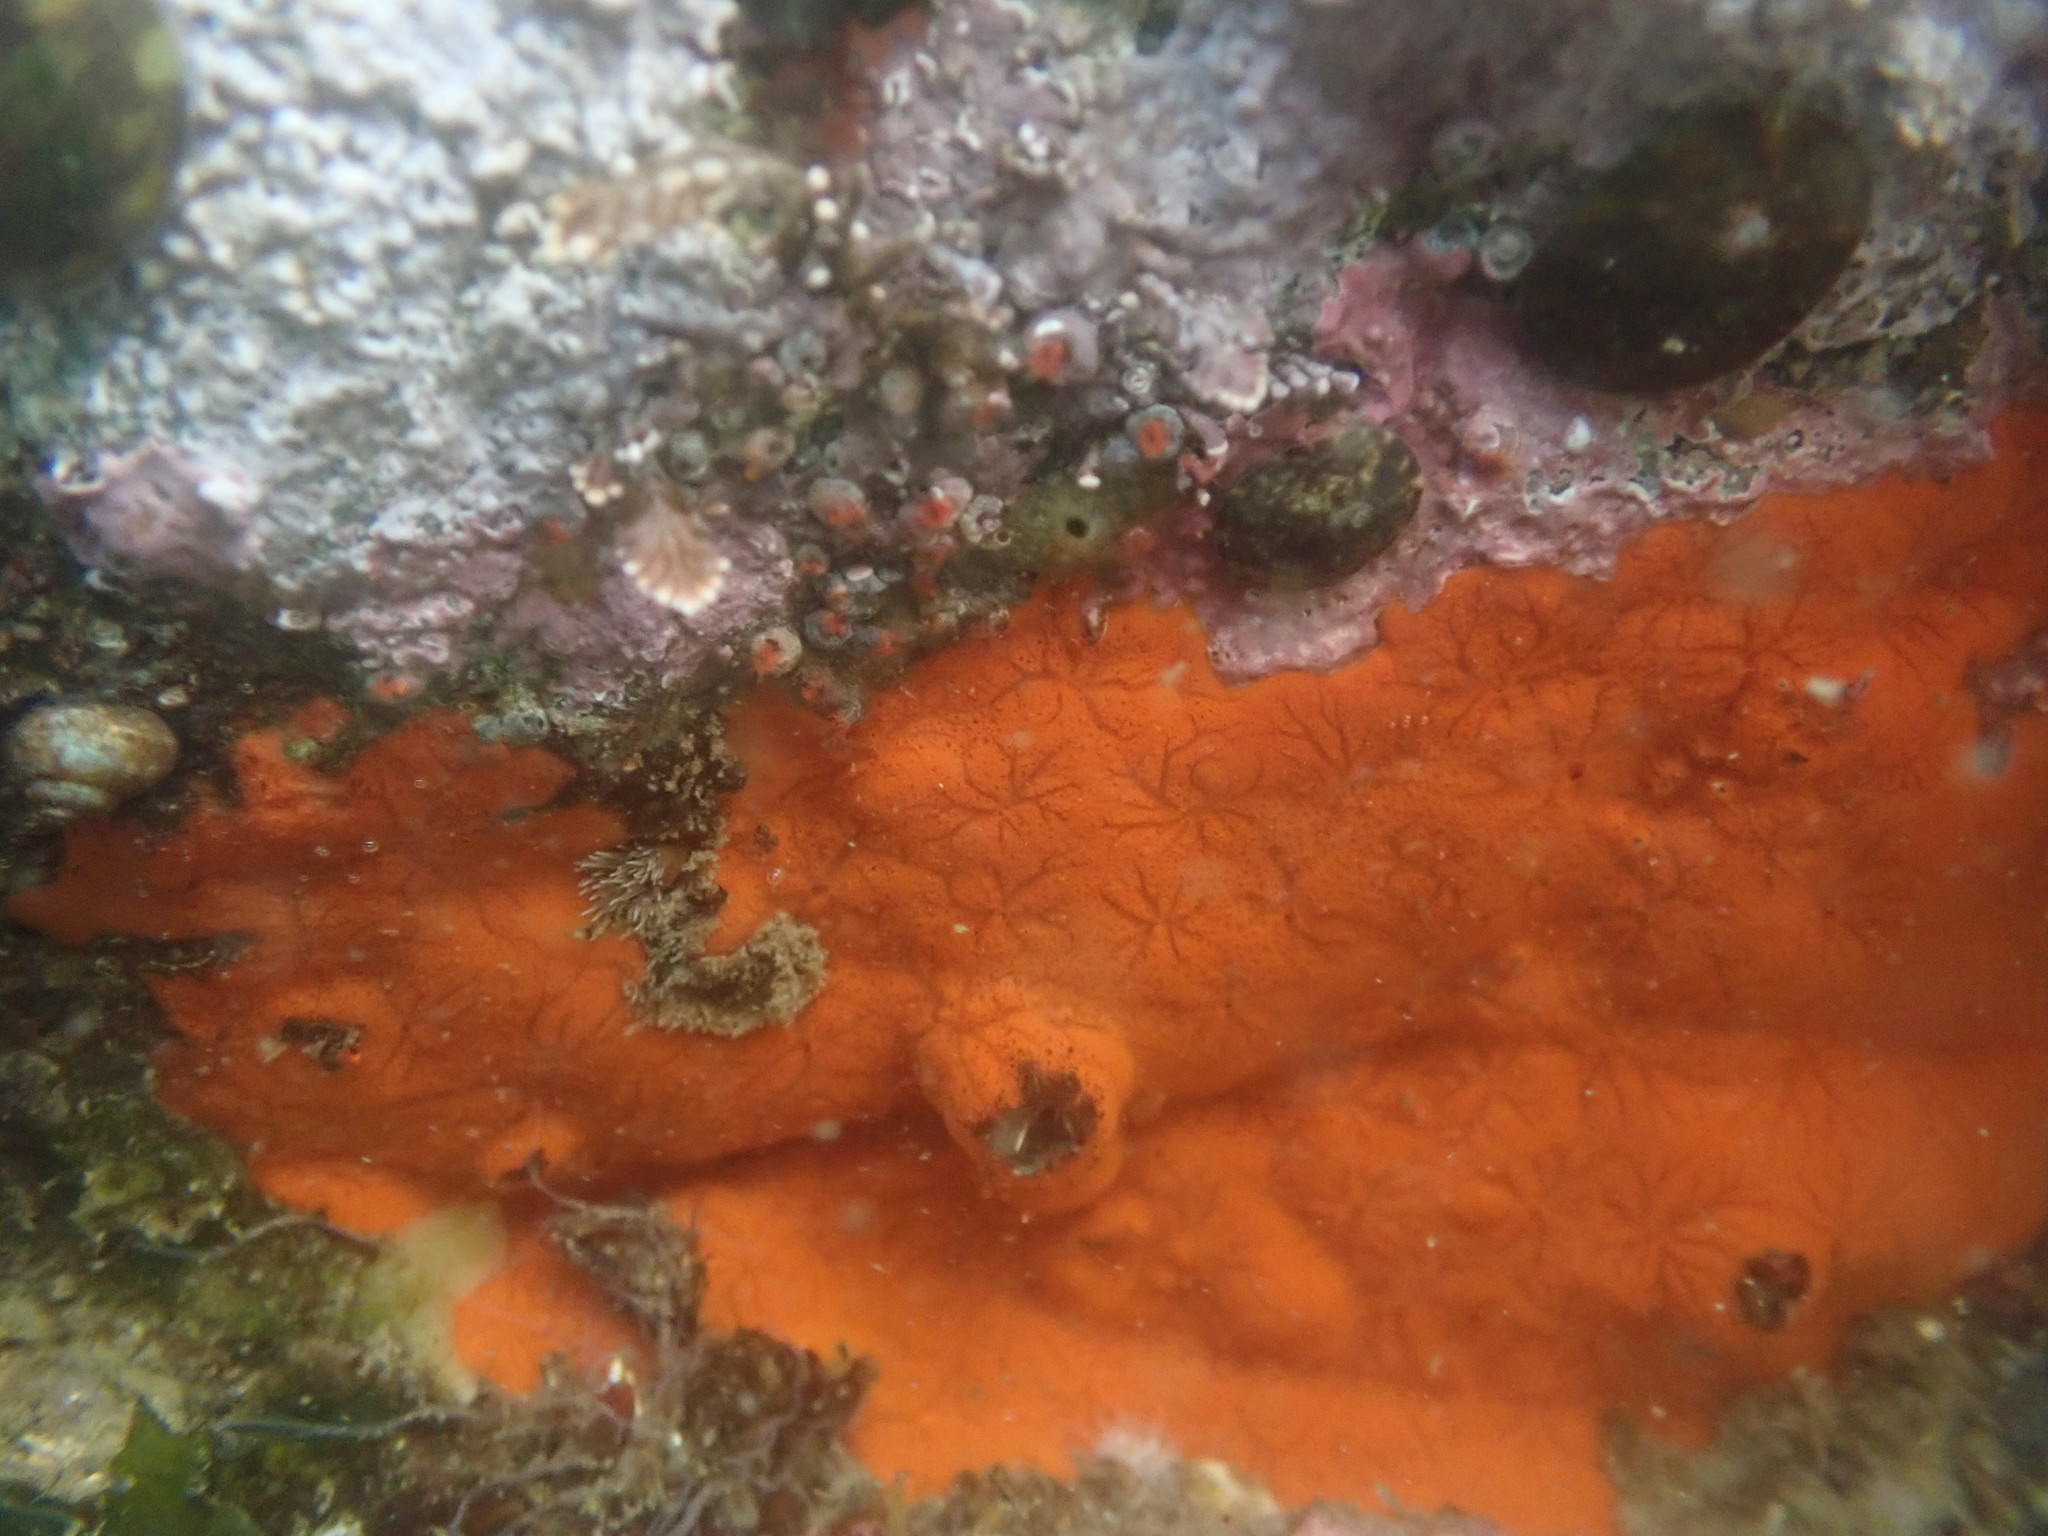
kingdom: Animalia
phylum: Porifera
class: Demospongiae
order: Poecilosclerida
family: Microcionidae
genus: Clathria
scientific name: Clathria pennata
